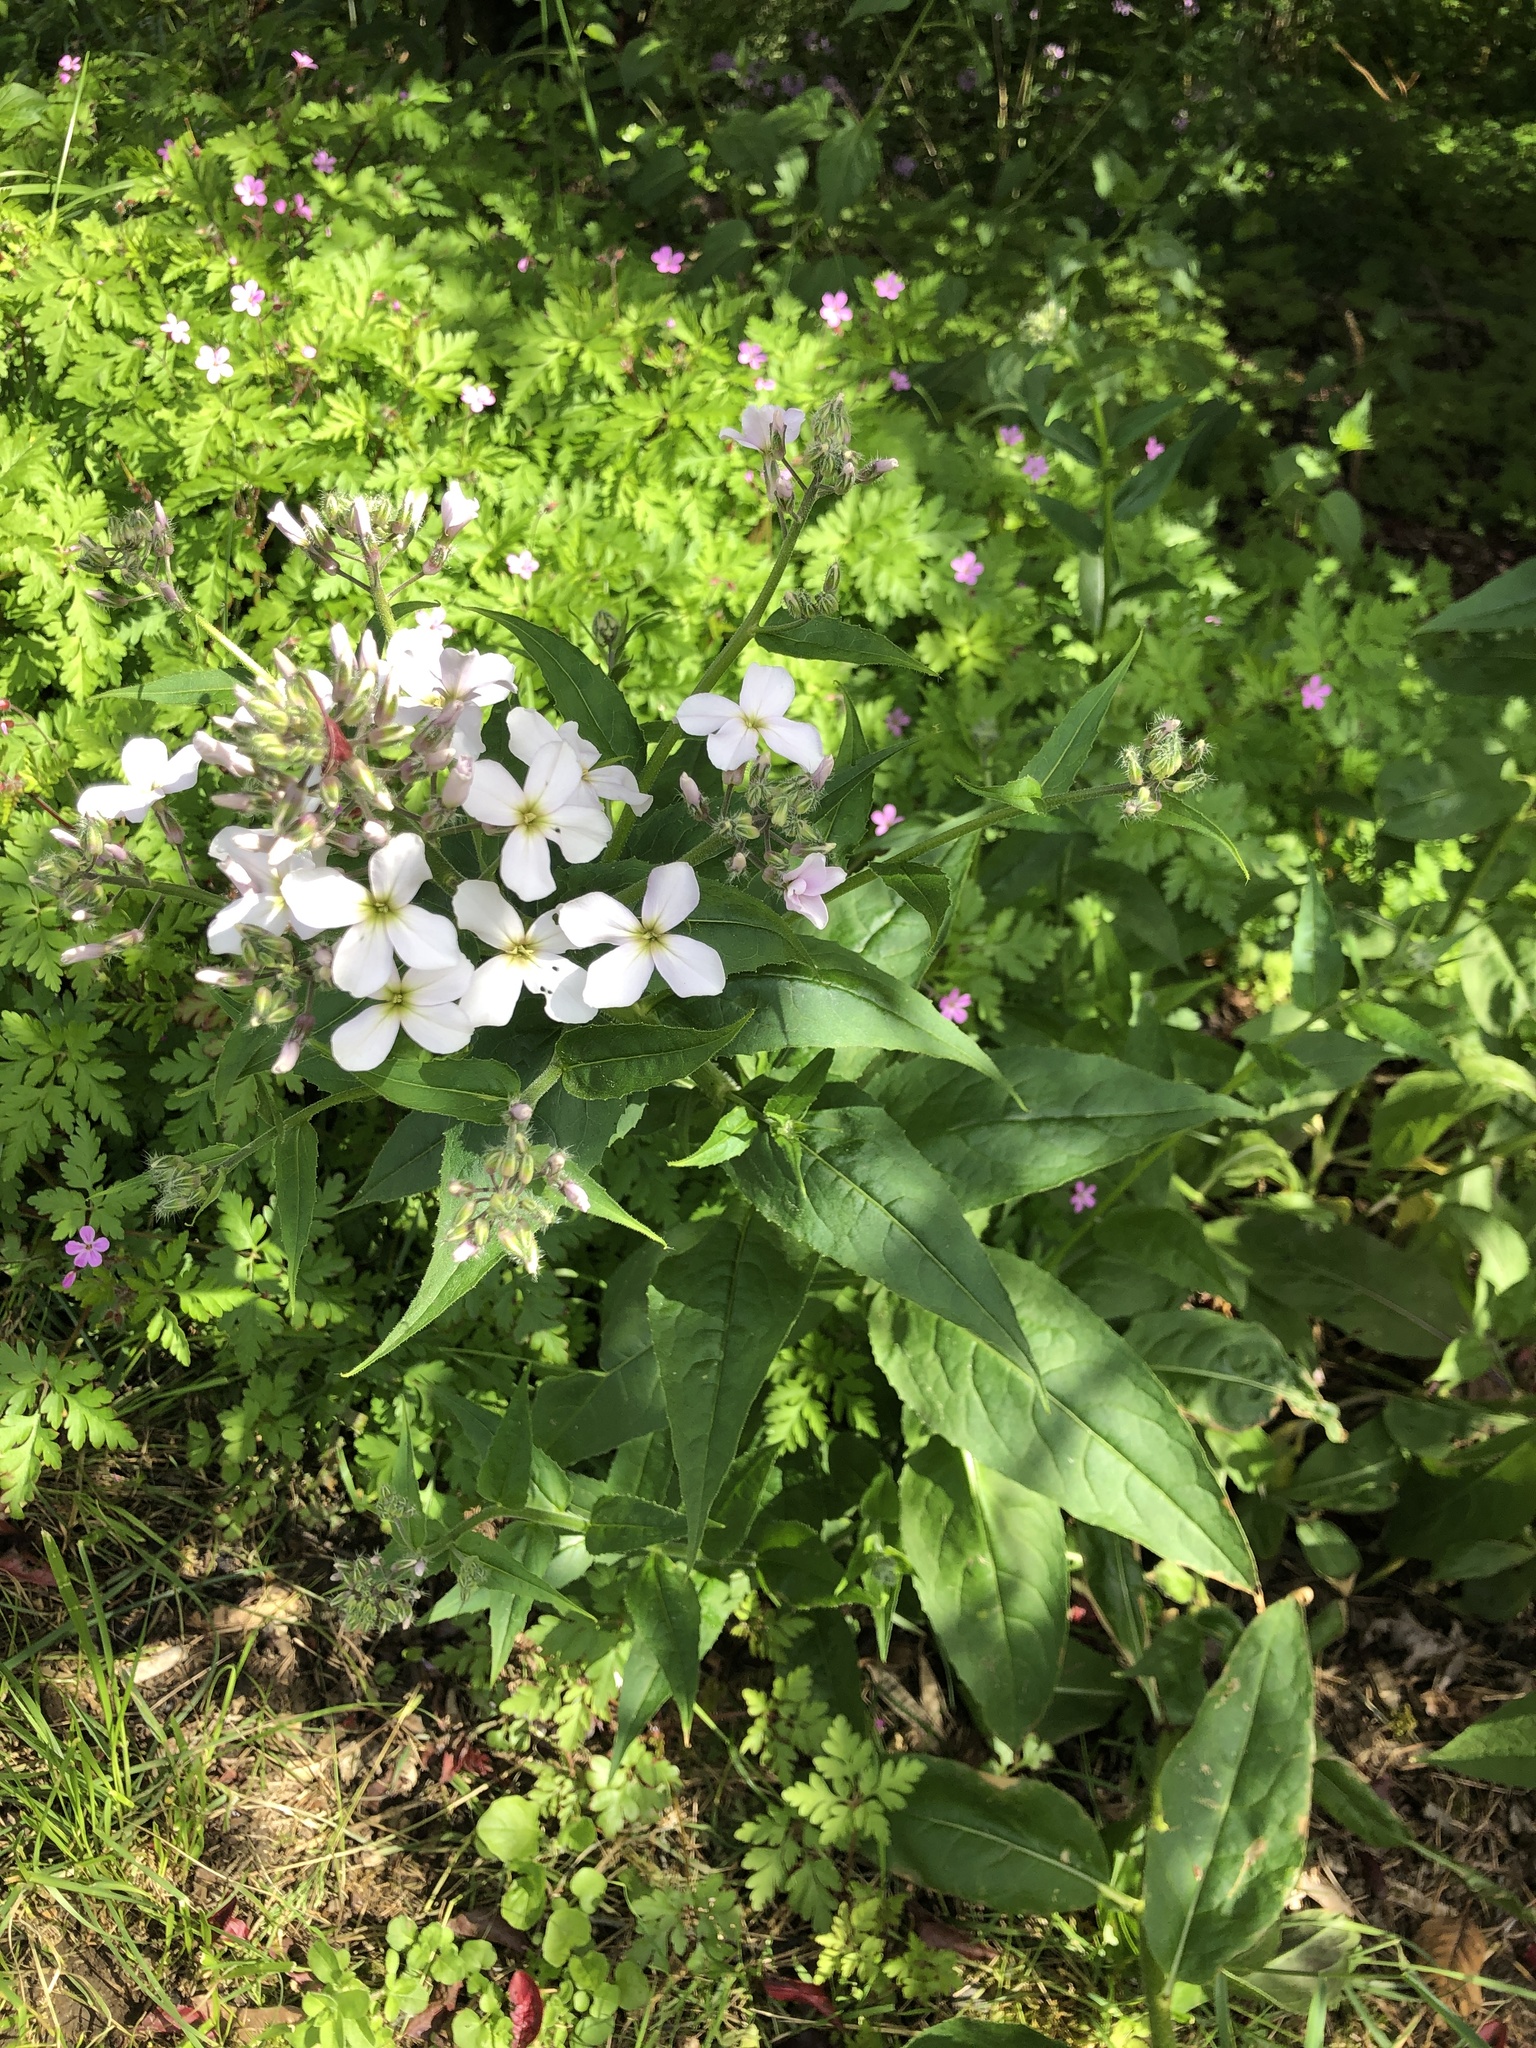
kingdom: Plantae
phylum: Tracheophyta
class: Magnoliopsida
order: Brassicales
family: Brassicaceae
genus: Hesperis
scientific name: Hesperis matronalis
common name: Dame's-violet
